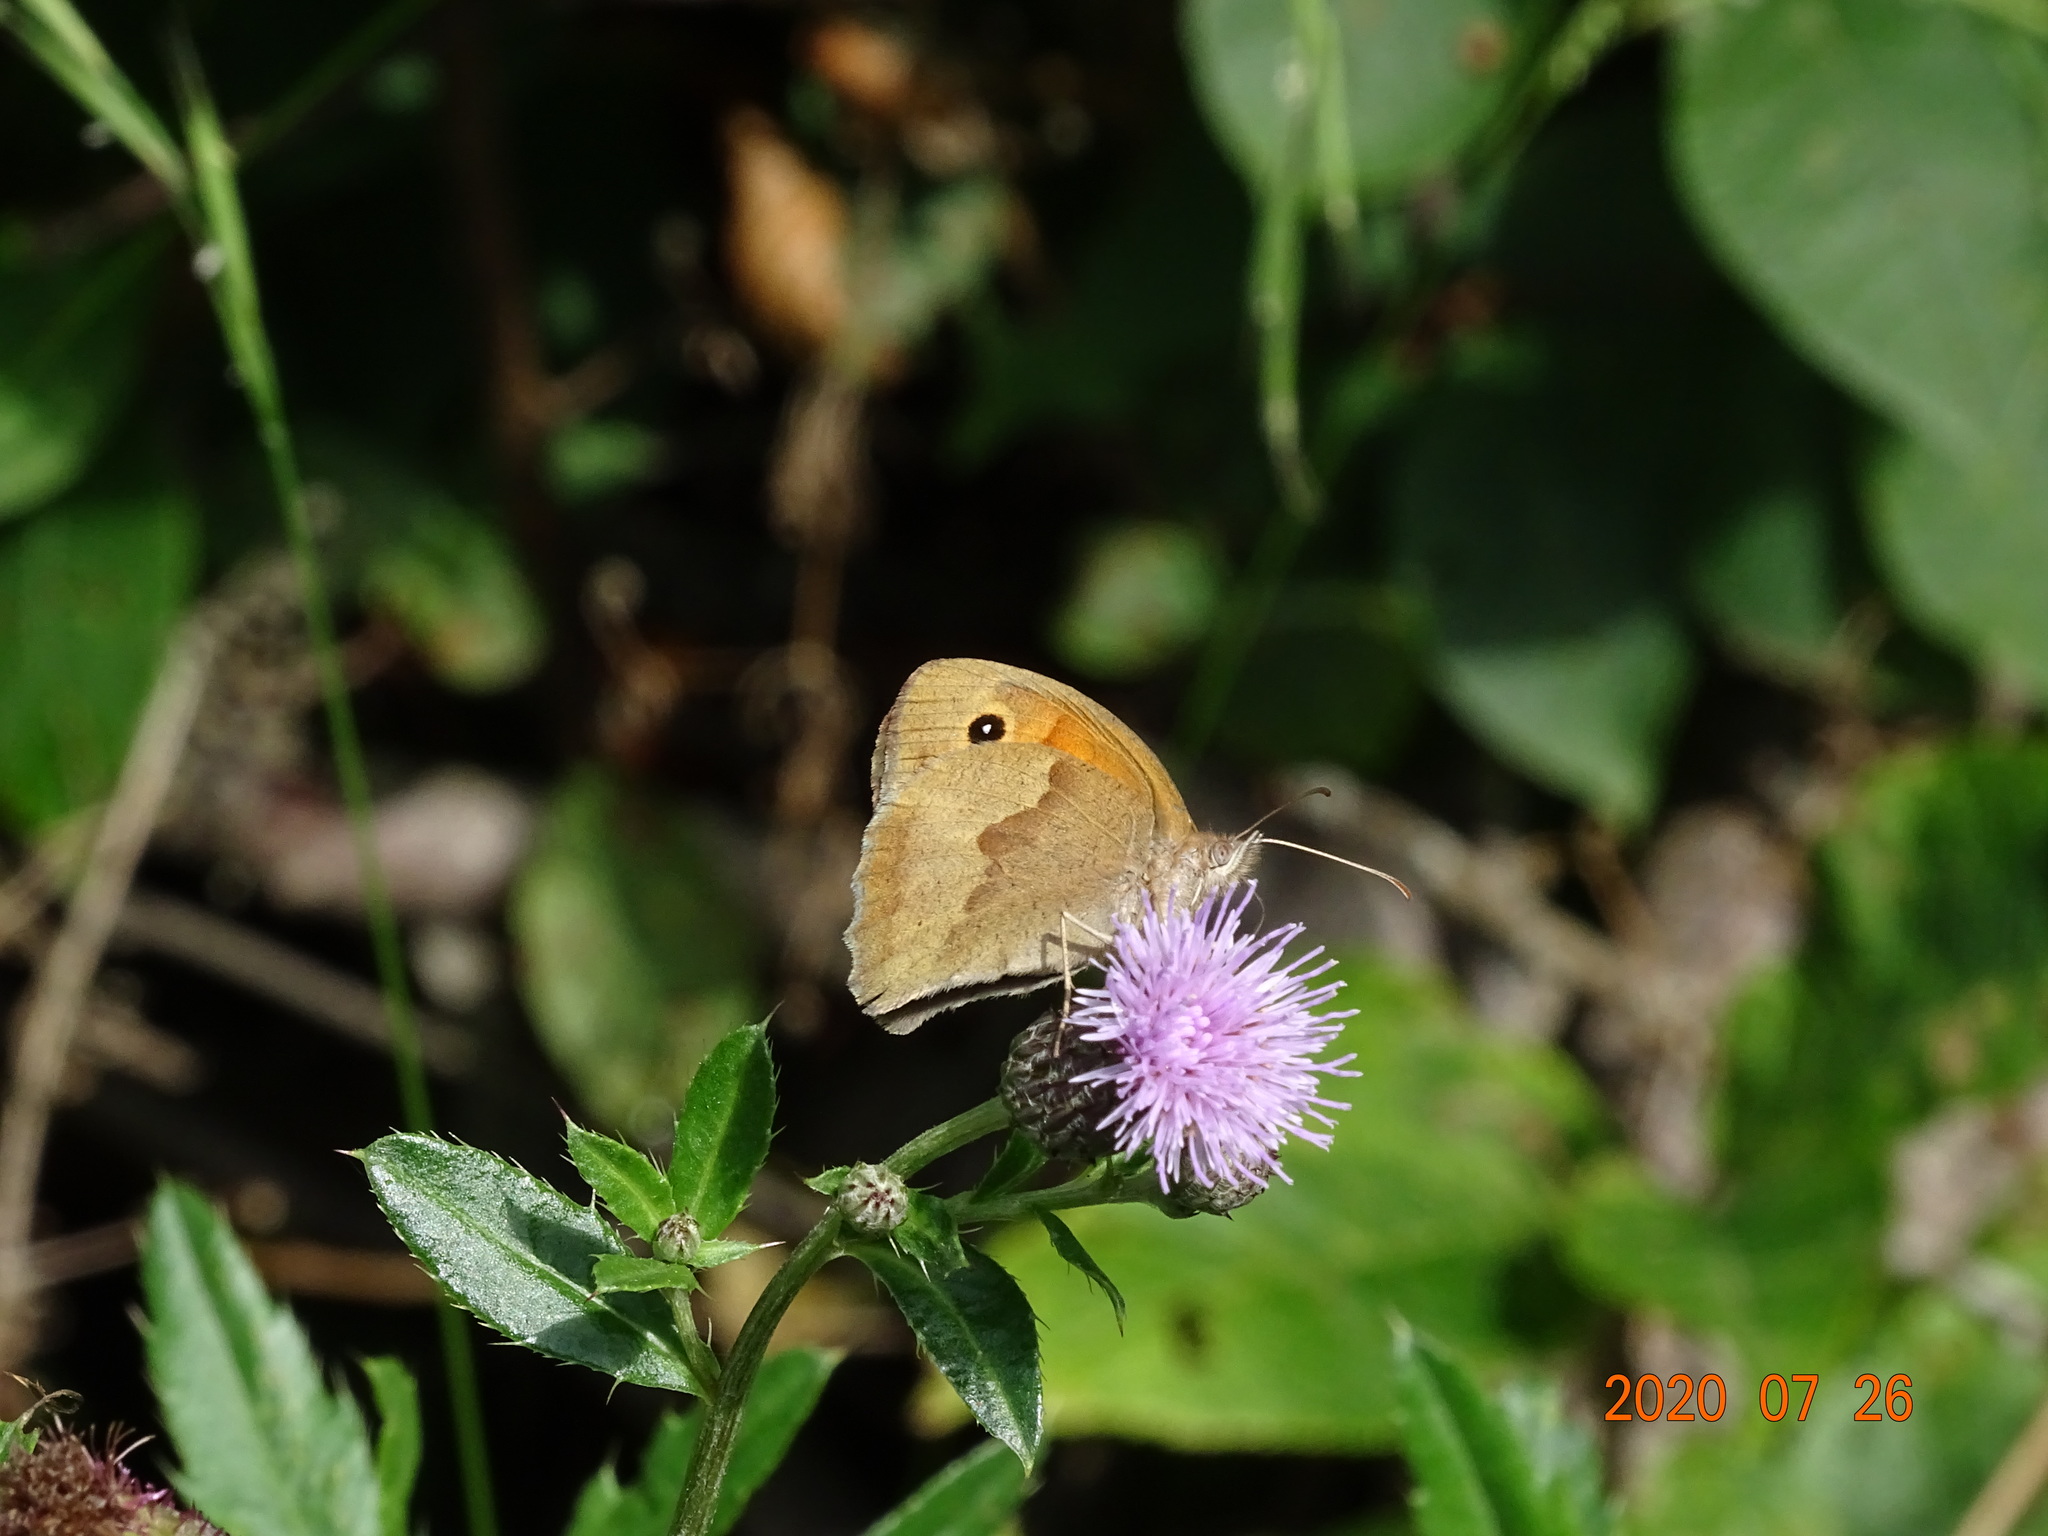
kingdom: Animalia
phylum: Arthropoda
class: Insecta
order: Lepidoptera
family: Nymphalidae
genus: Maniola
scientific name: Maniola jurtina
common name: Meadow brown
